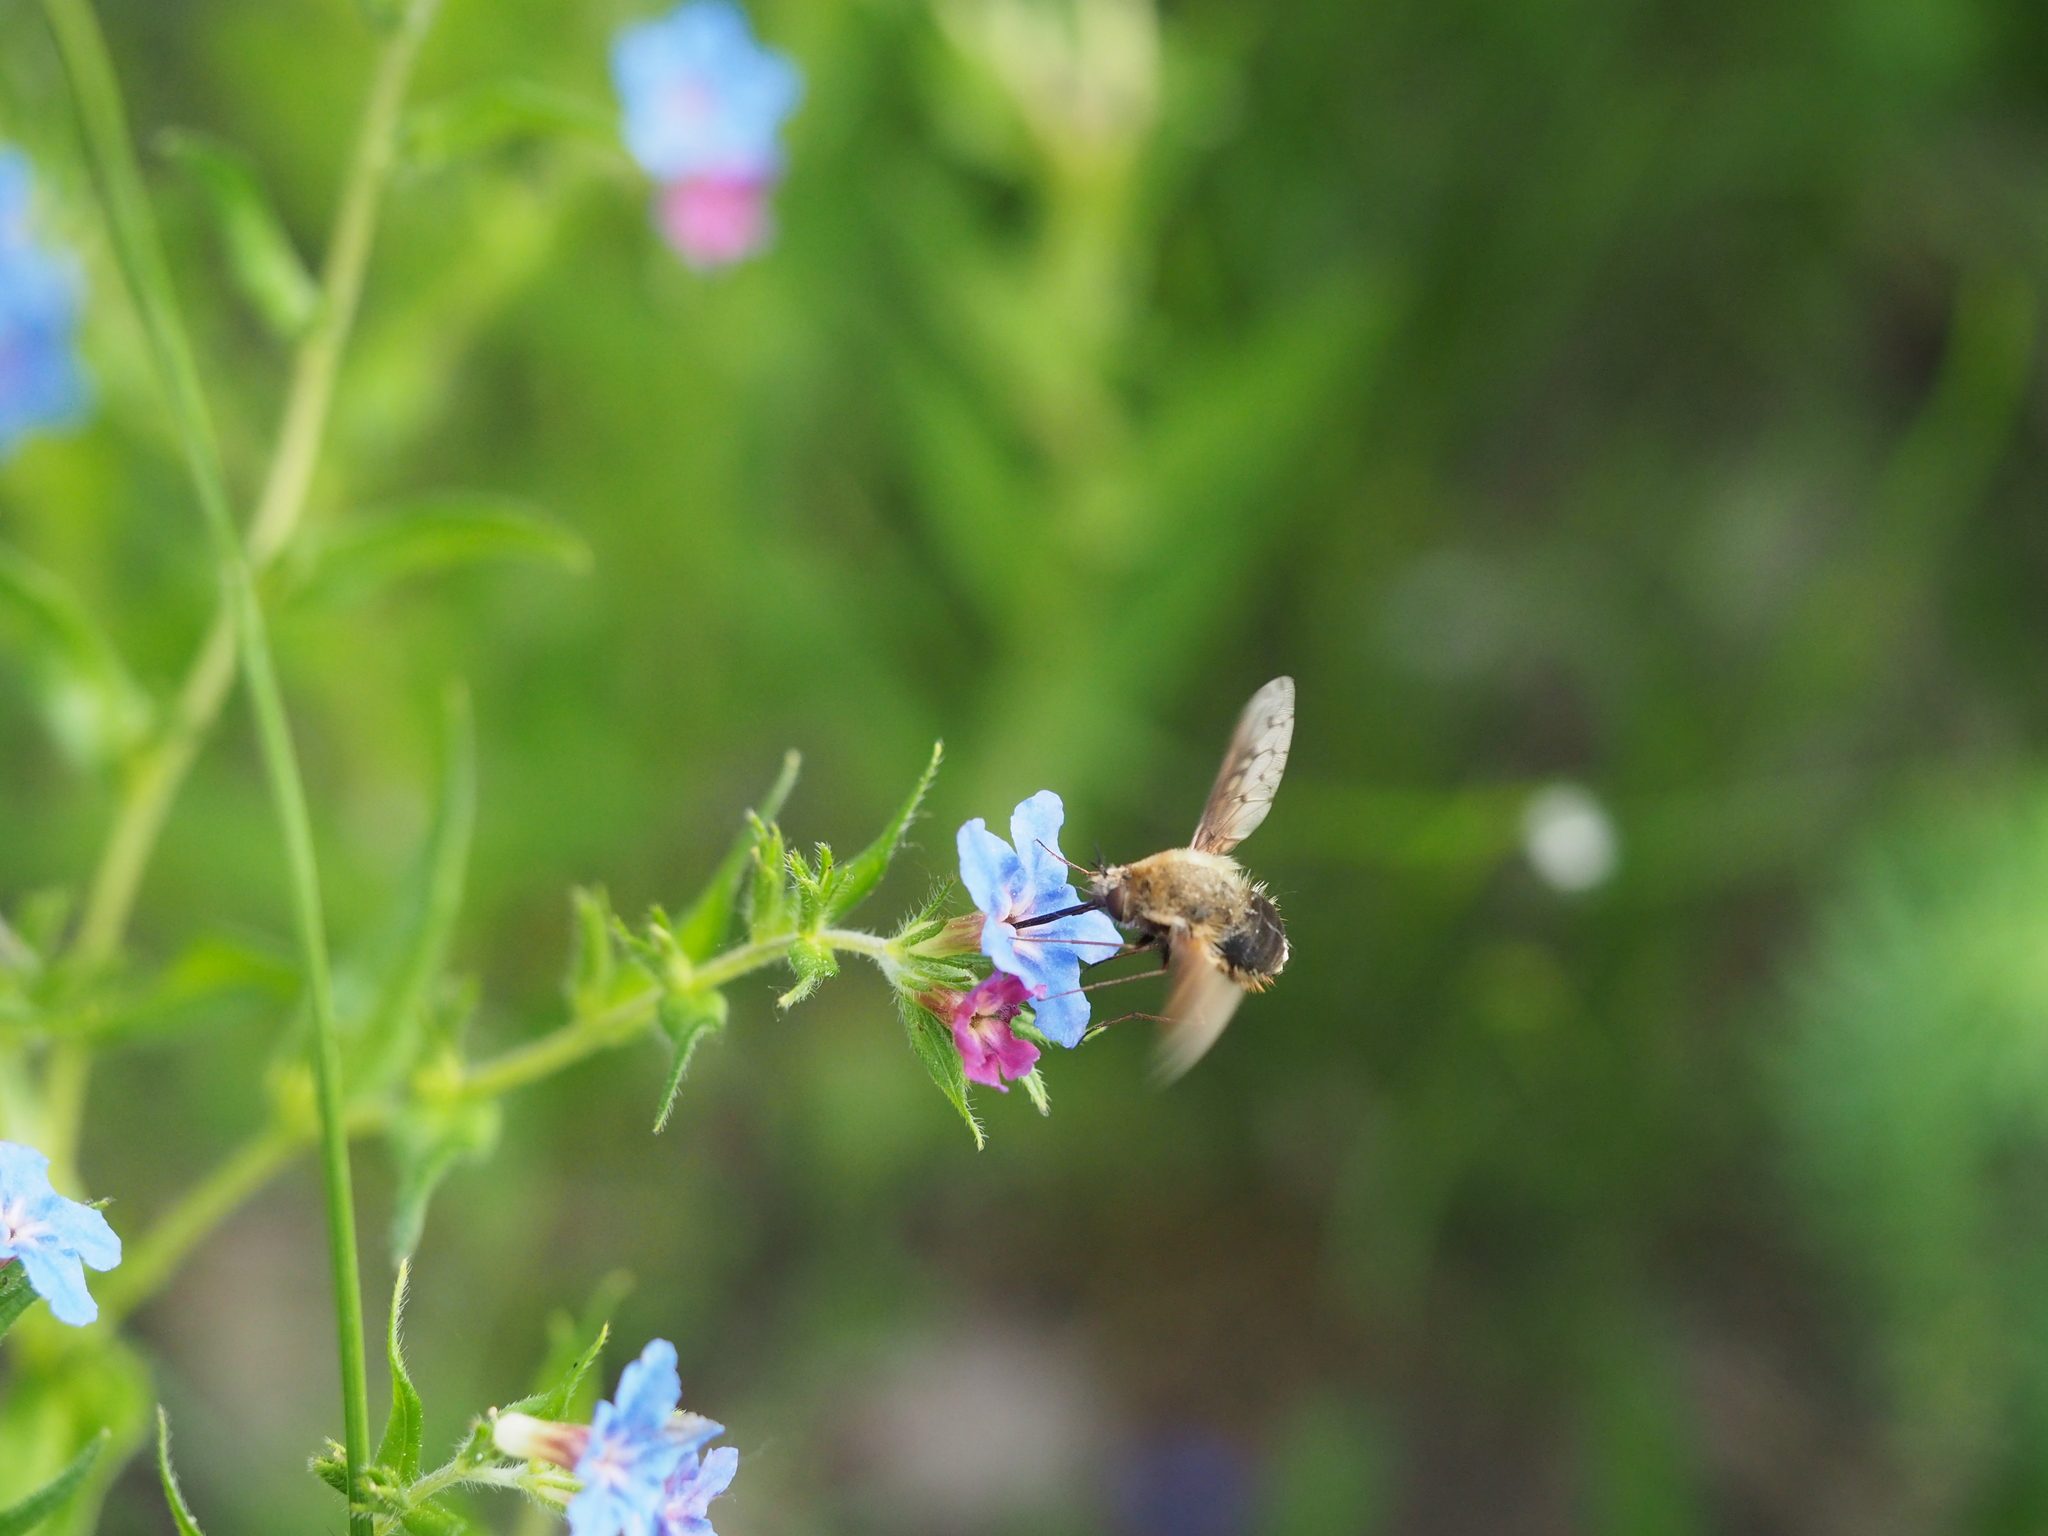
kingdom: Animalia
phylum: Arthropoda
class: Insecta
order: Diptera
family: Bombyliidae
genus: Bombylius
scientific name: Bombylius discolor
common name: Dotted bee-fly
